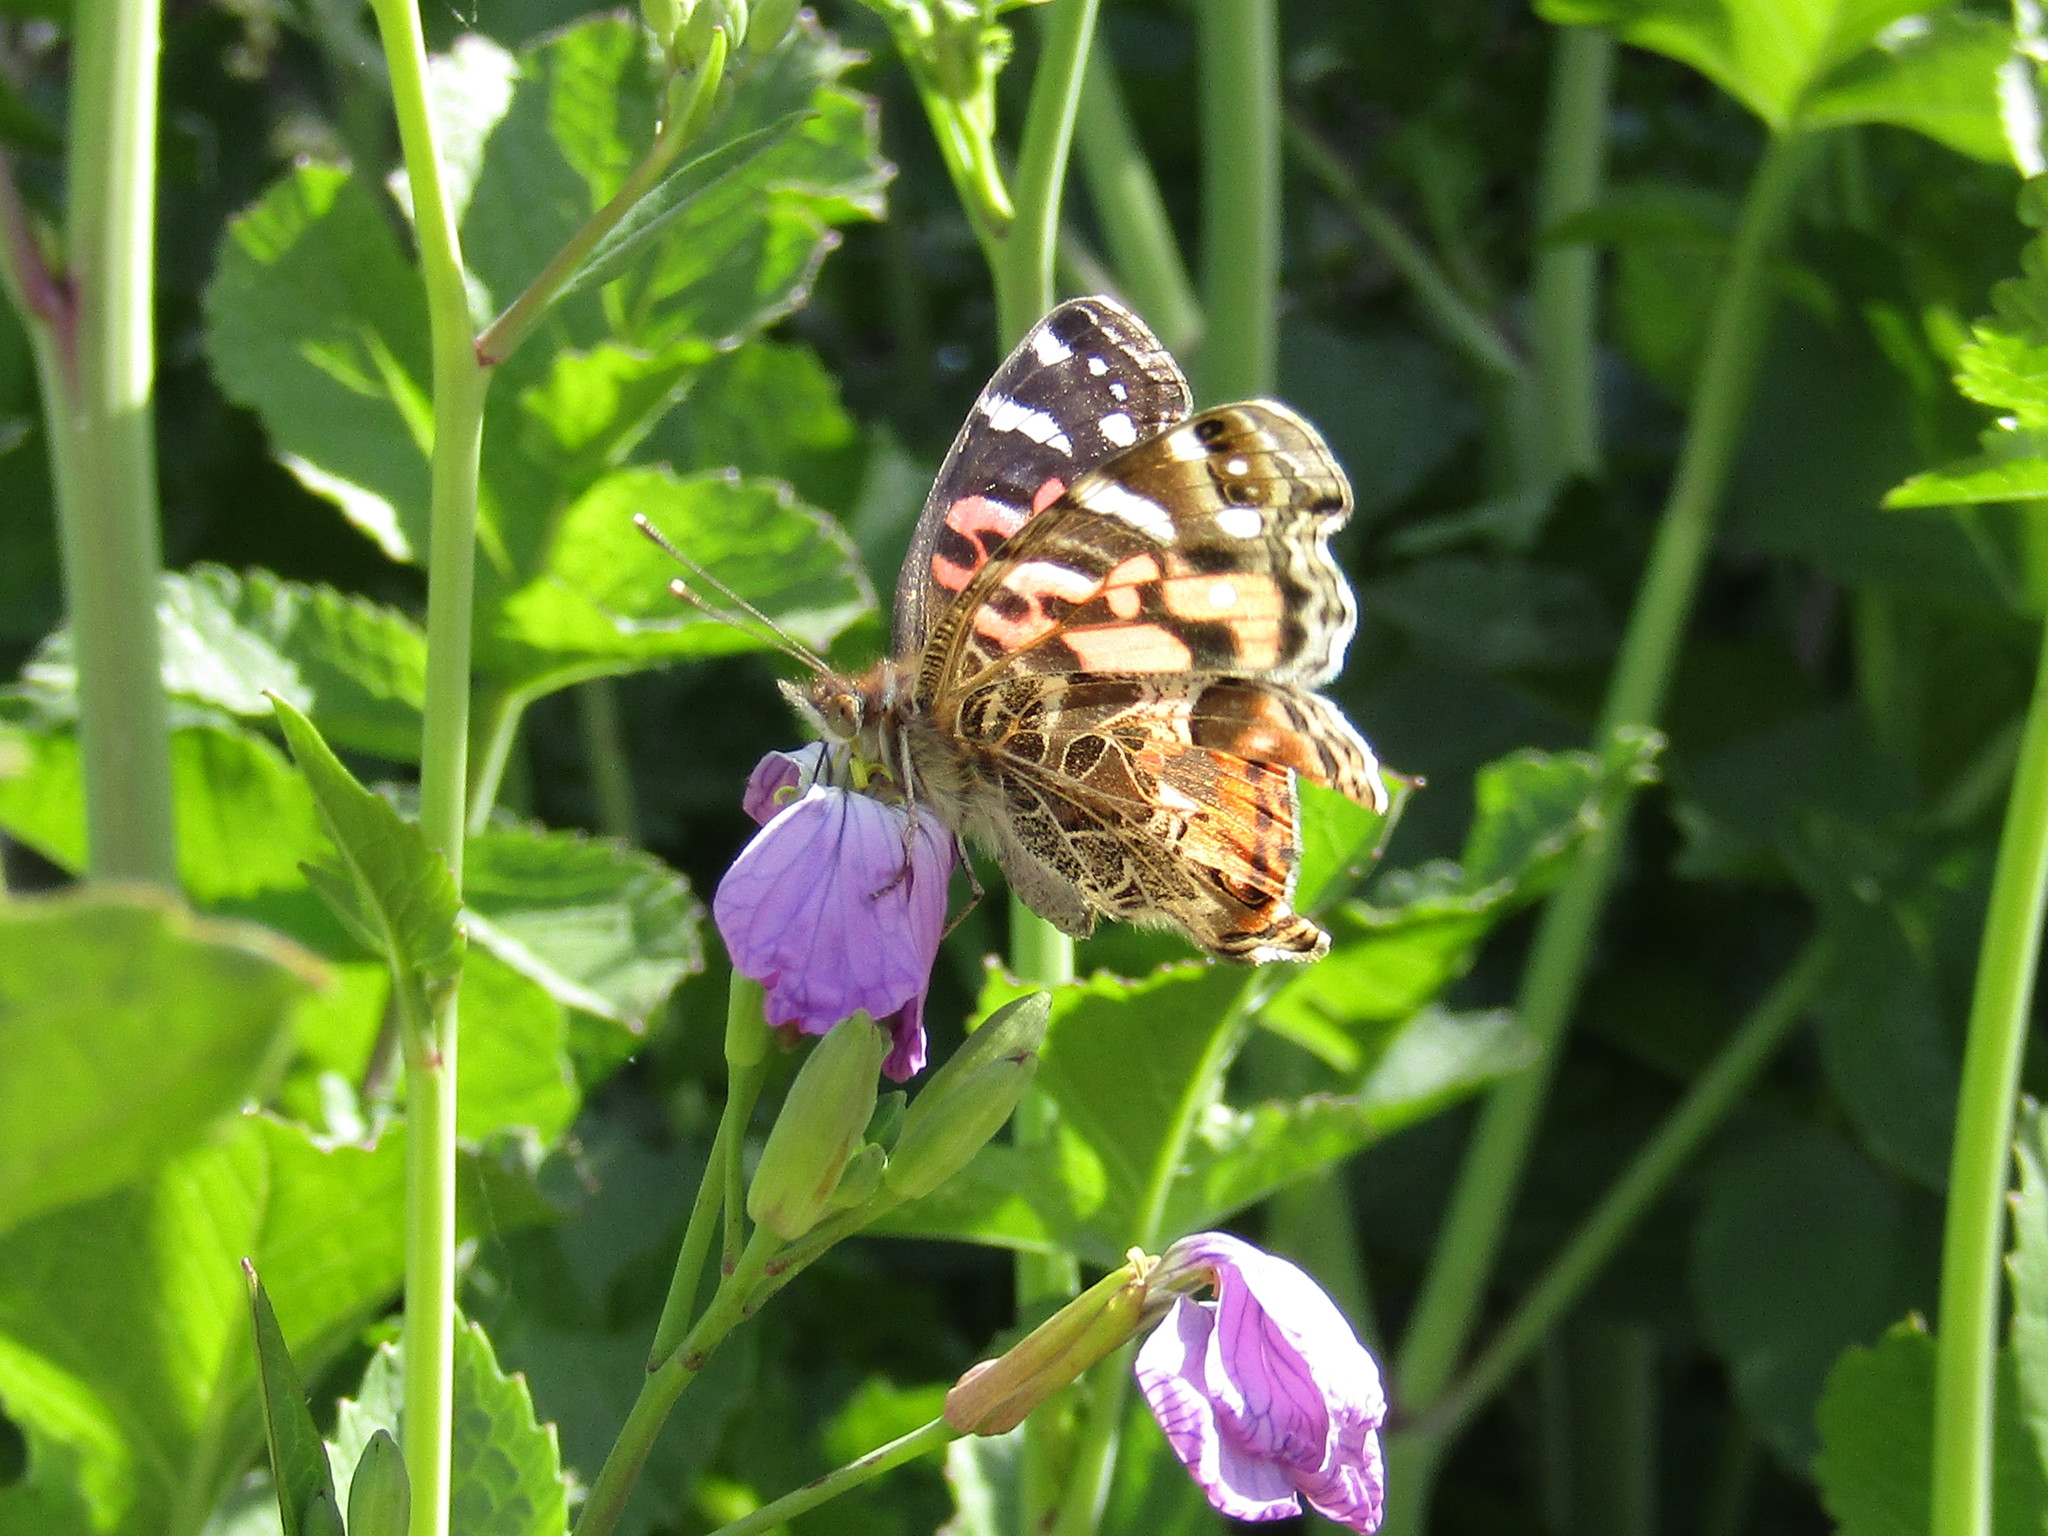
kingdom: Animalia
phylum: Arthropoda
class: Insecta
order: Lepidoptera
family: Nymphalidae
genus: Vanessa
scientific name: Vanessa braziliensis
